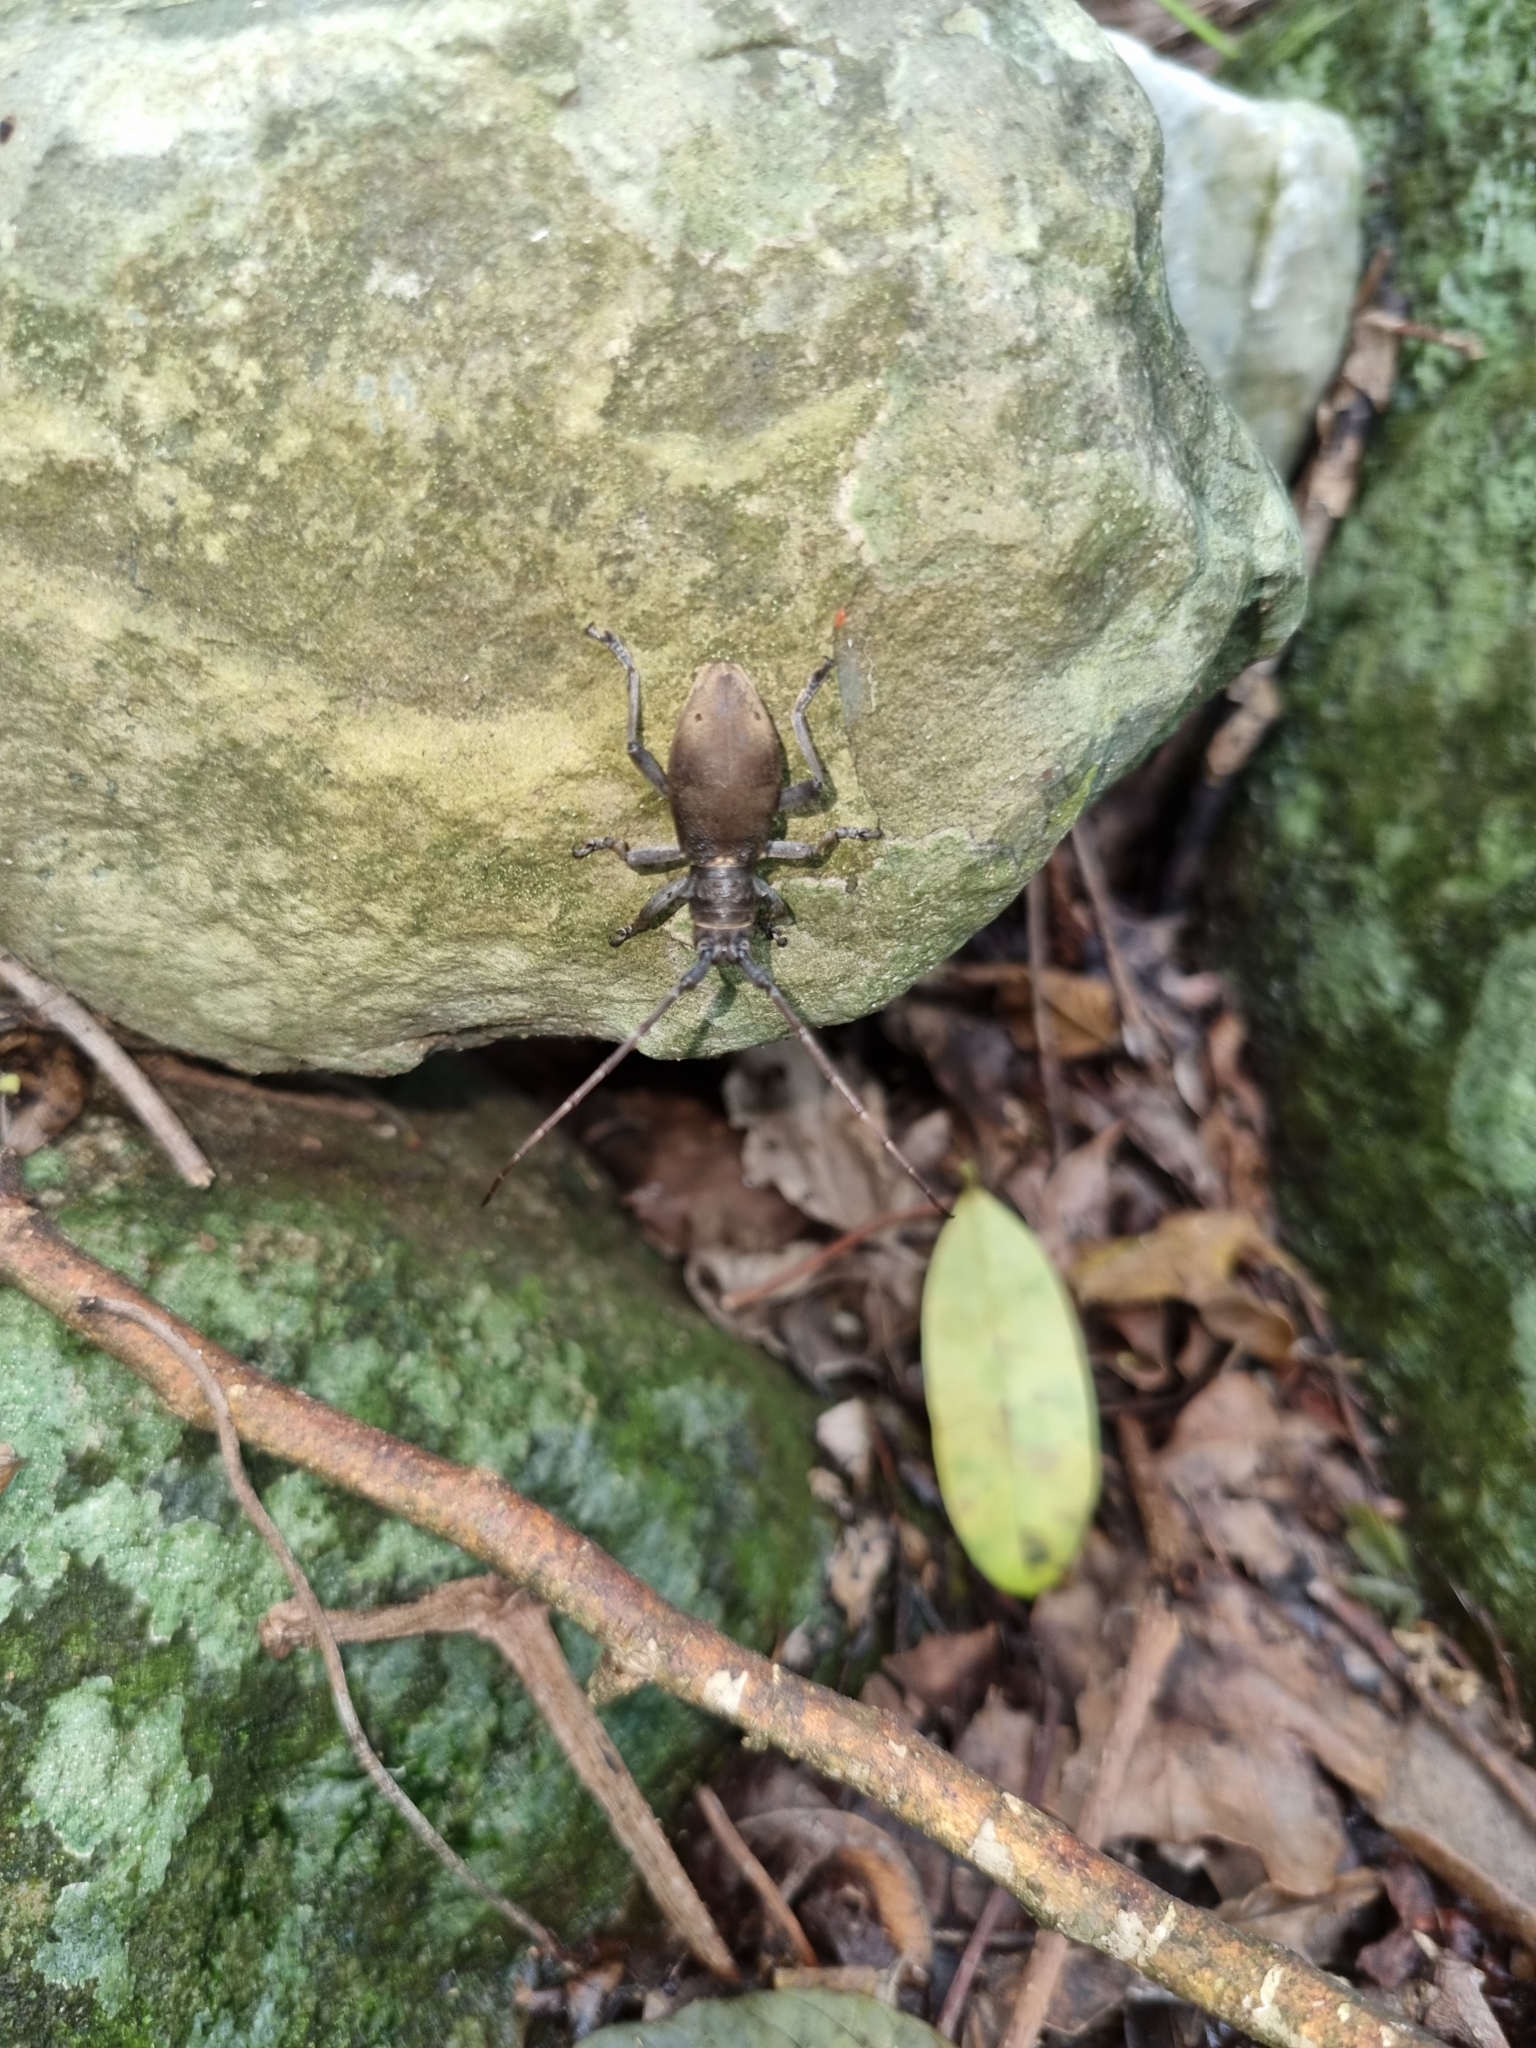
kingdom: Animalia
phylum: Arthropoda
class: Insecta
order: Coleoptera
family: Cerambycidae
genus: Hepomidion
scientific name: Hepomidion stygicum
